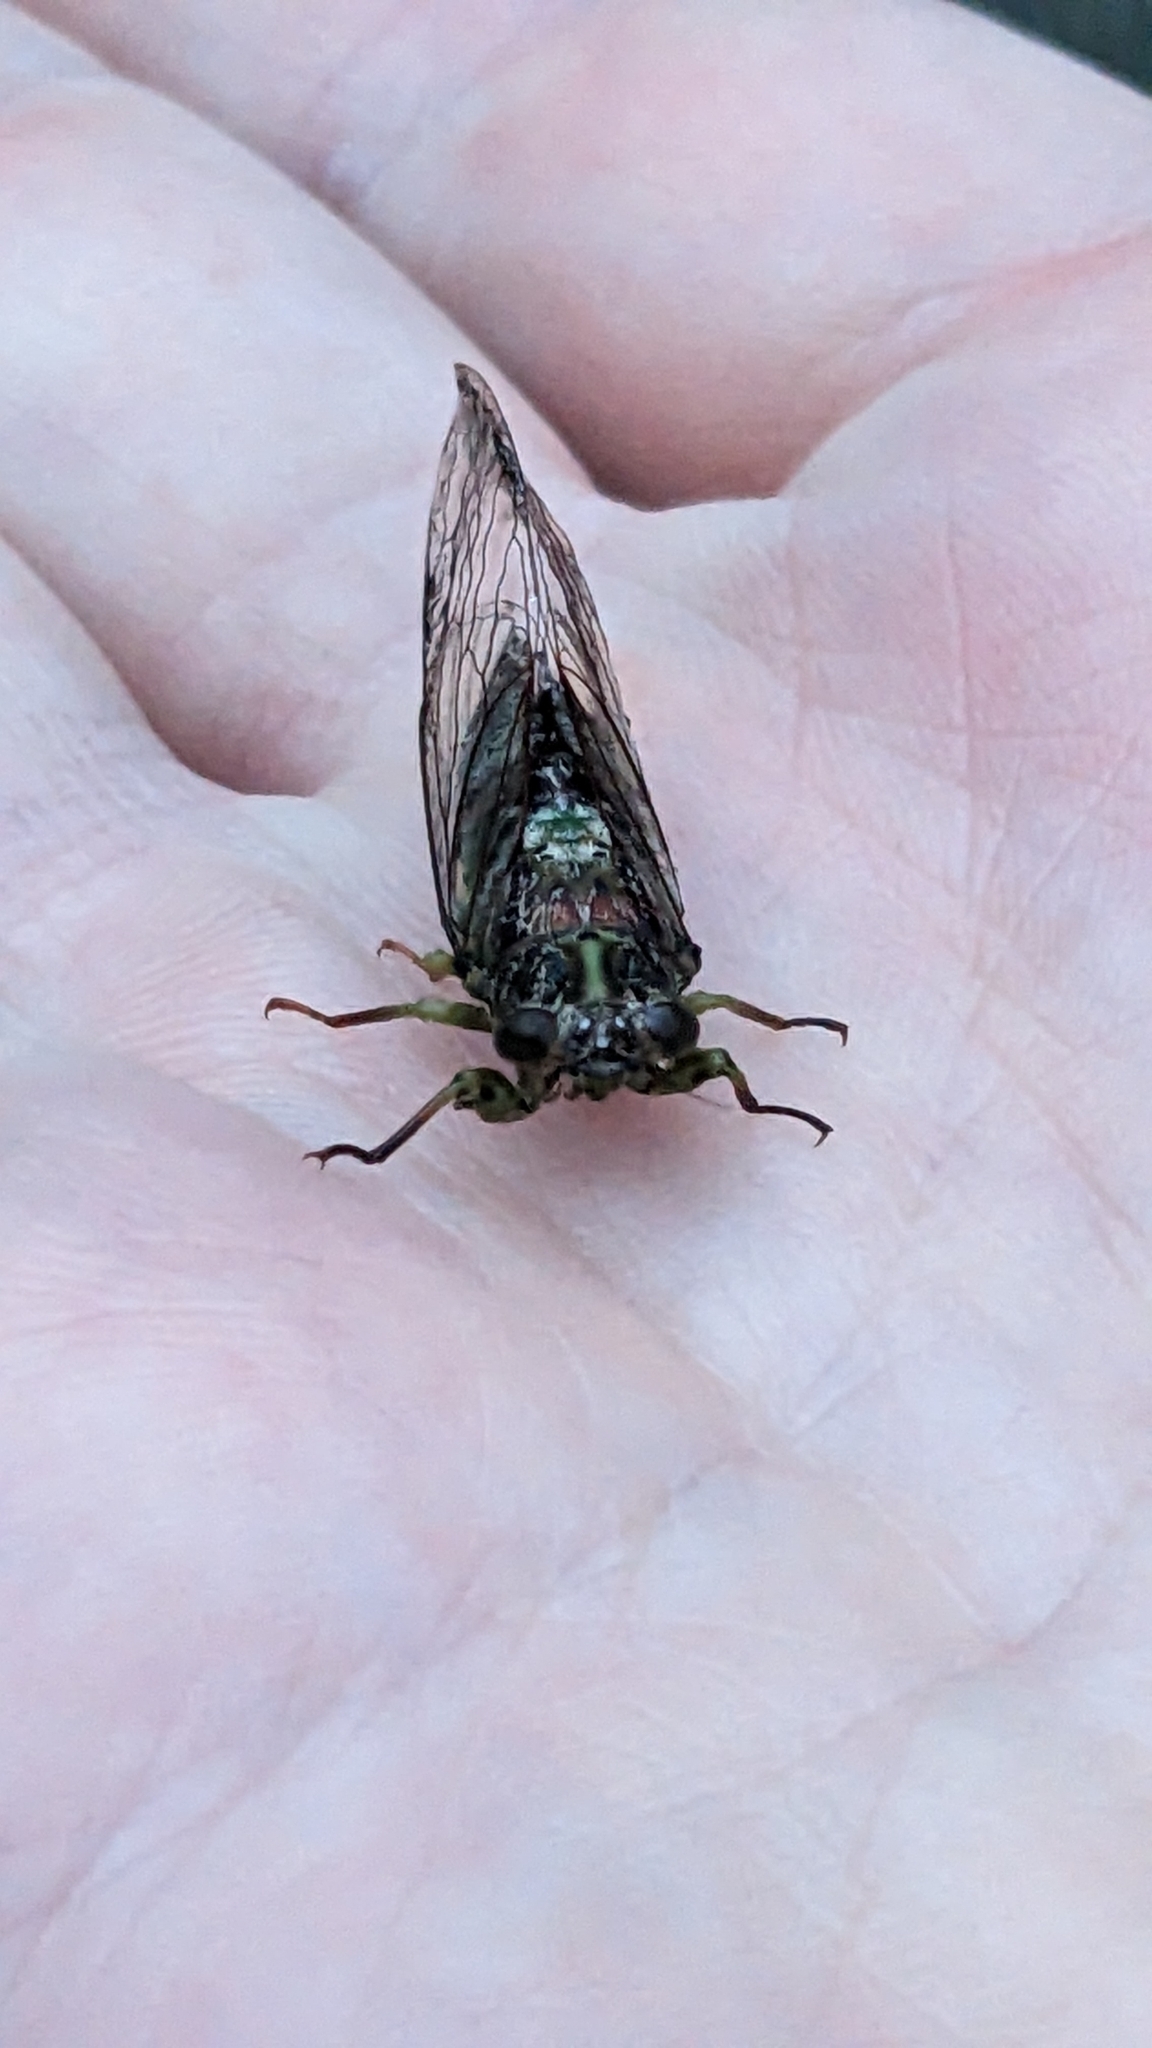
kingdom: Animalia
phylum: Arthropoda
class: Insecta
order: Hemiptera
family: Cicadidae
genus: Kikihia
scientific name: Kikihia scutellaris
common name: Lesser bronze cicada
